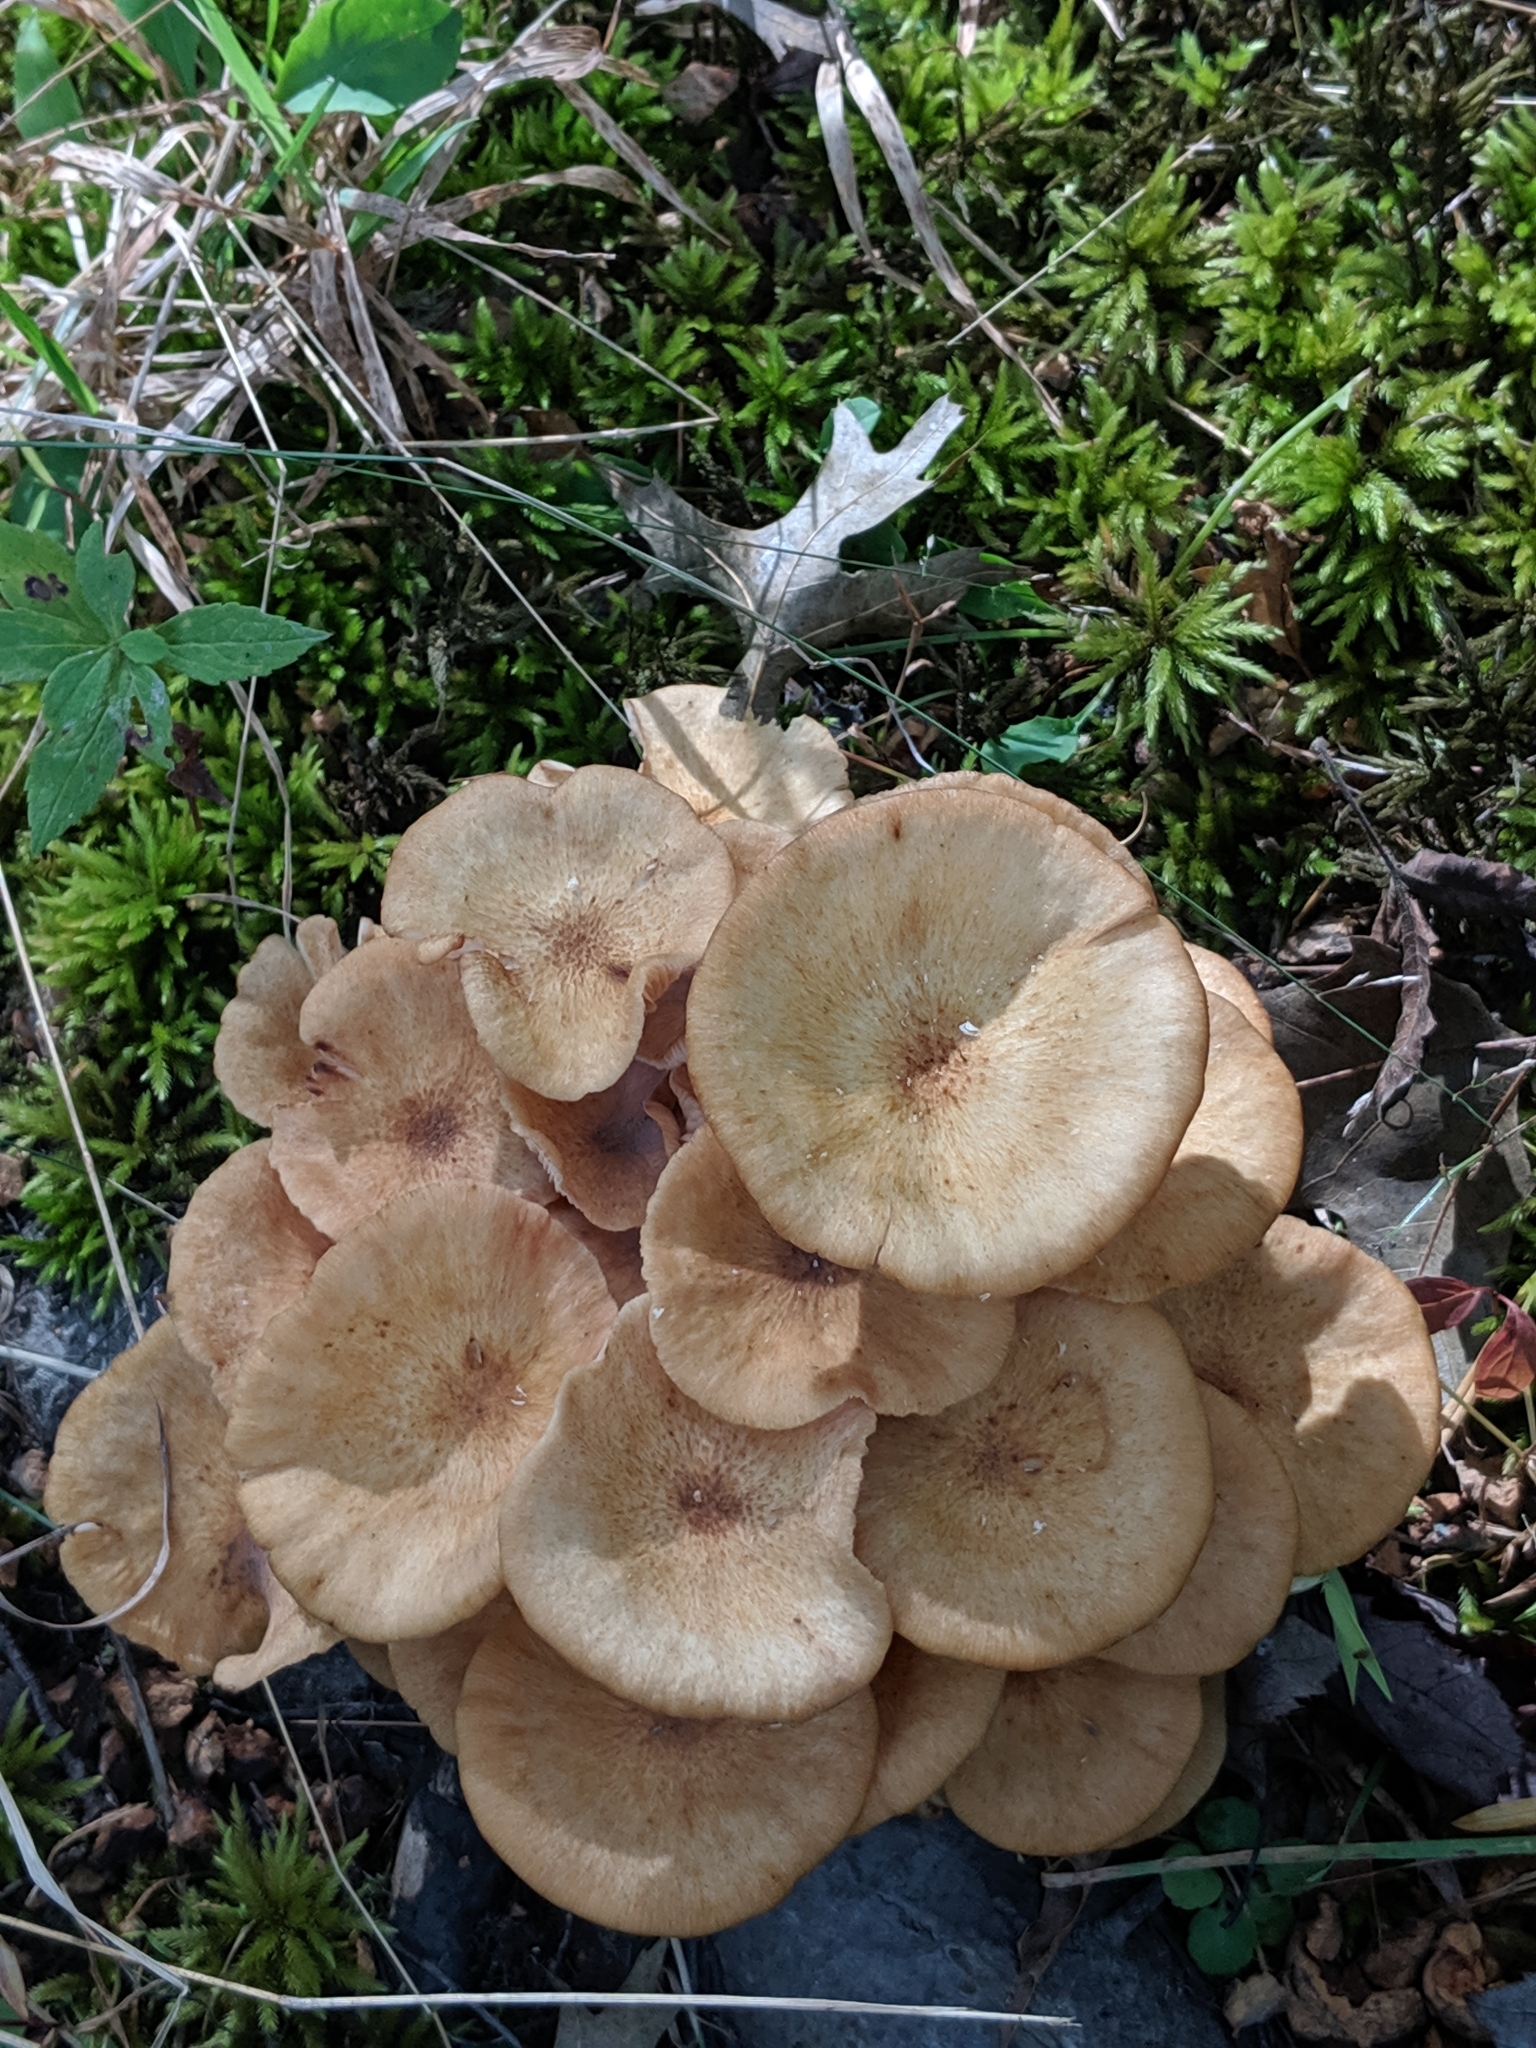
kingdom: Fungi
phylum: Basidiomycota
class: Agaricomycetes
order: Agaricales
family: Physalacriaceae
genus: Desarmillaria
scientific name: Desarmillaria caespitosa
